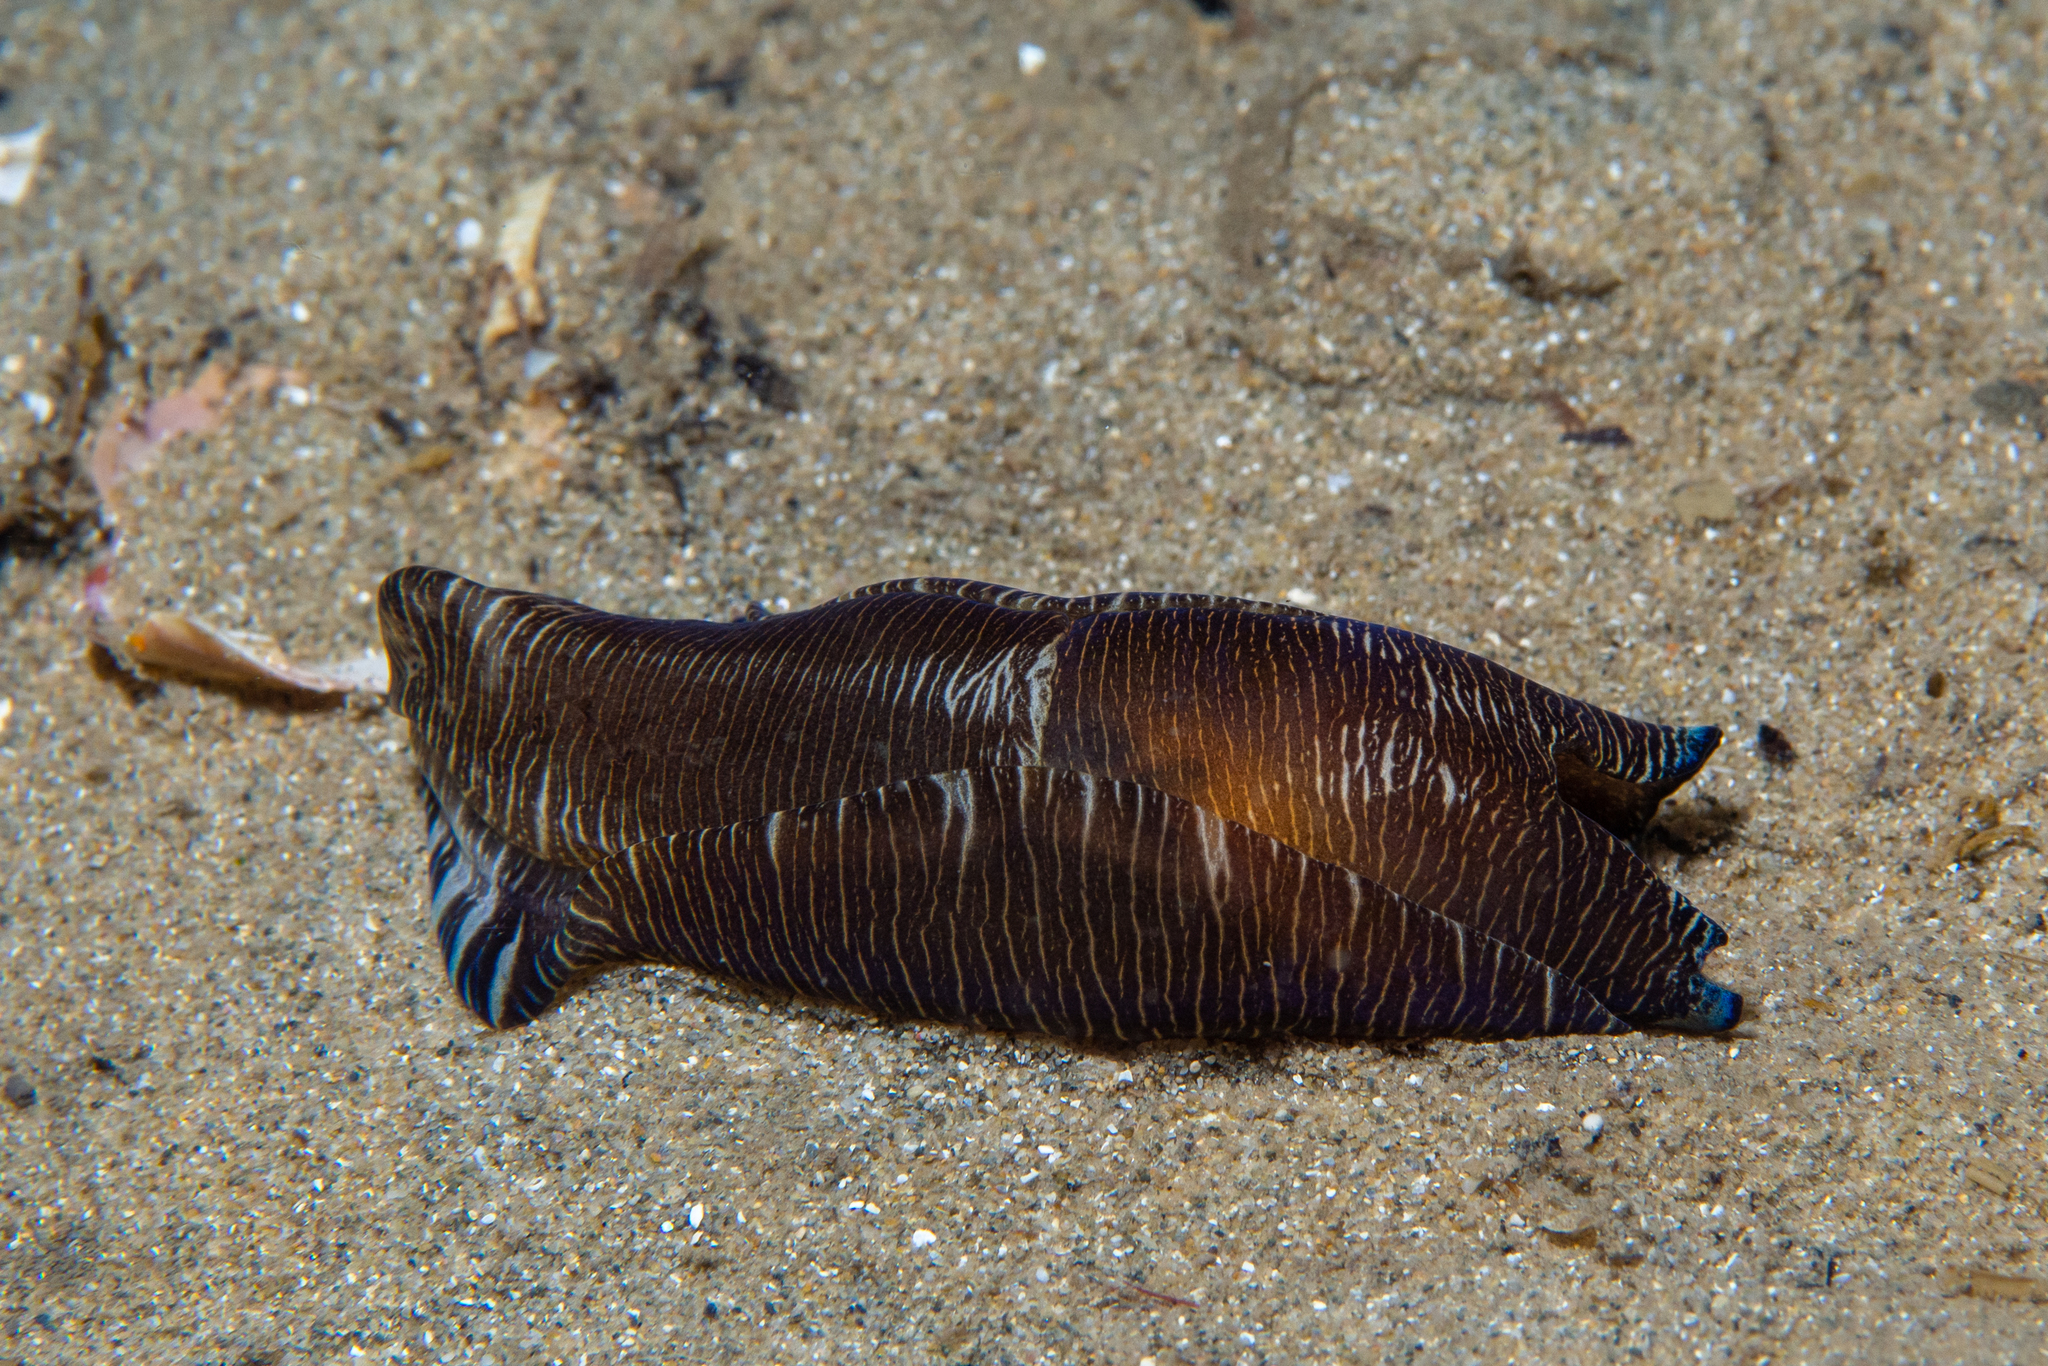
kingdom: Animalia
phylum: Mollusca
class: Gastropoda
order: Cephalaspidea
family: Aglajidae
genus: Tubulophilinopsis
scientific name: Tubulophilinopsis lineolata
